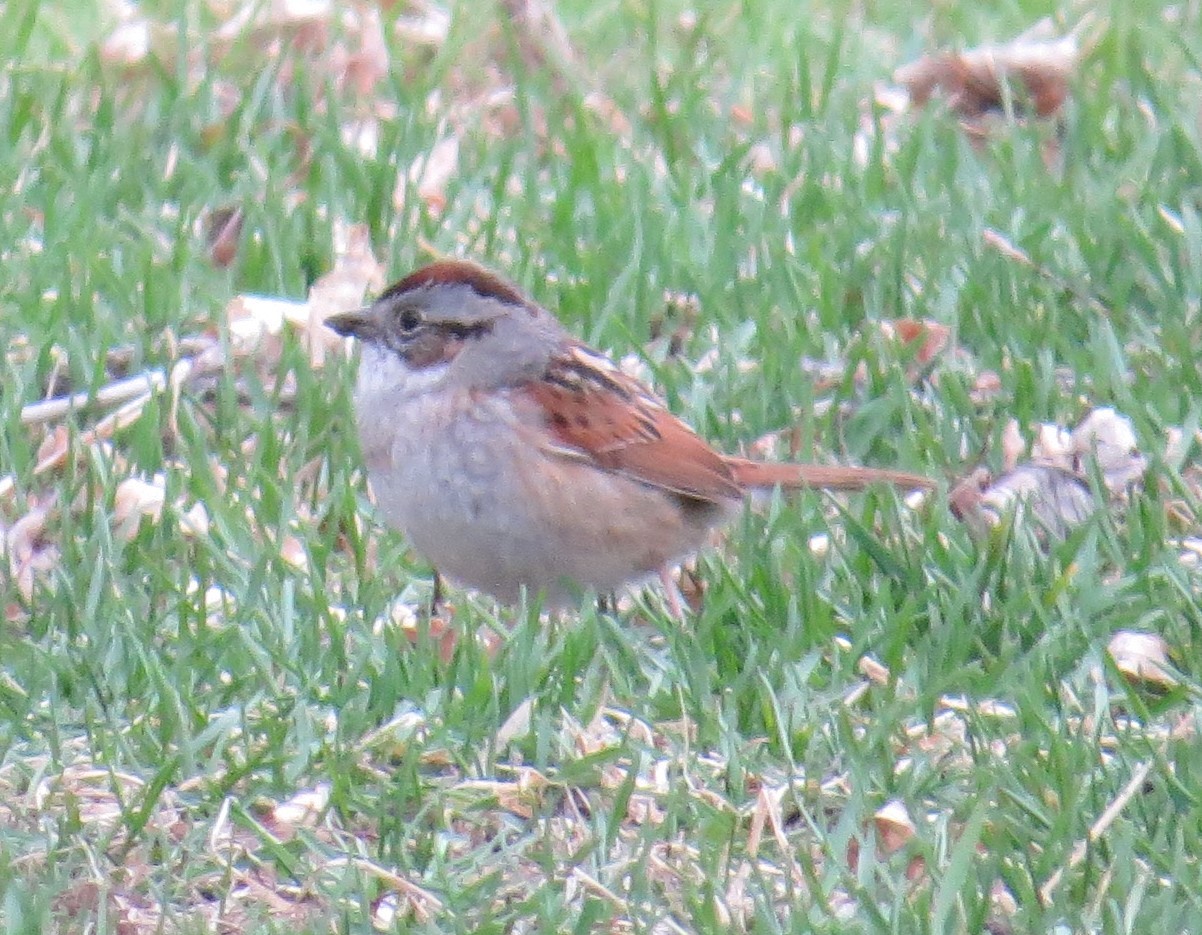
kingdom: Animalia
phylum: Chordata
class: Aves
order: Passeriformes
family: Passerellidae
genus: Melospiza
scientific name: Melospiza georgiana
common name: Swamp sparrow
